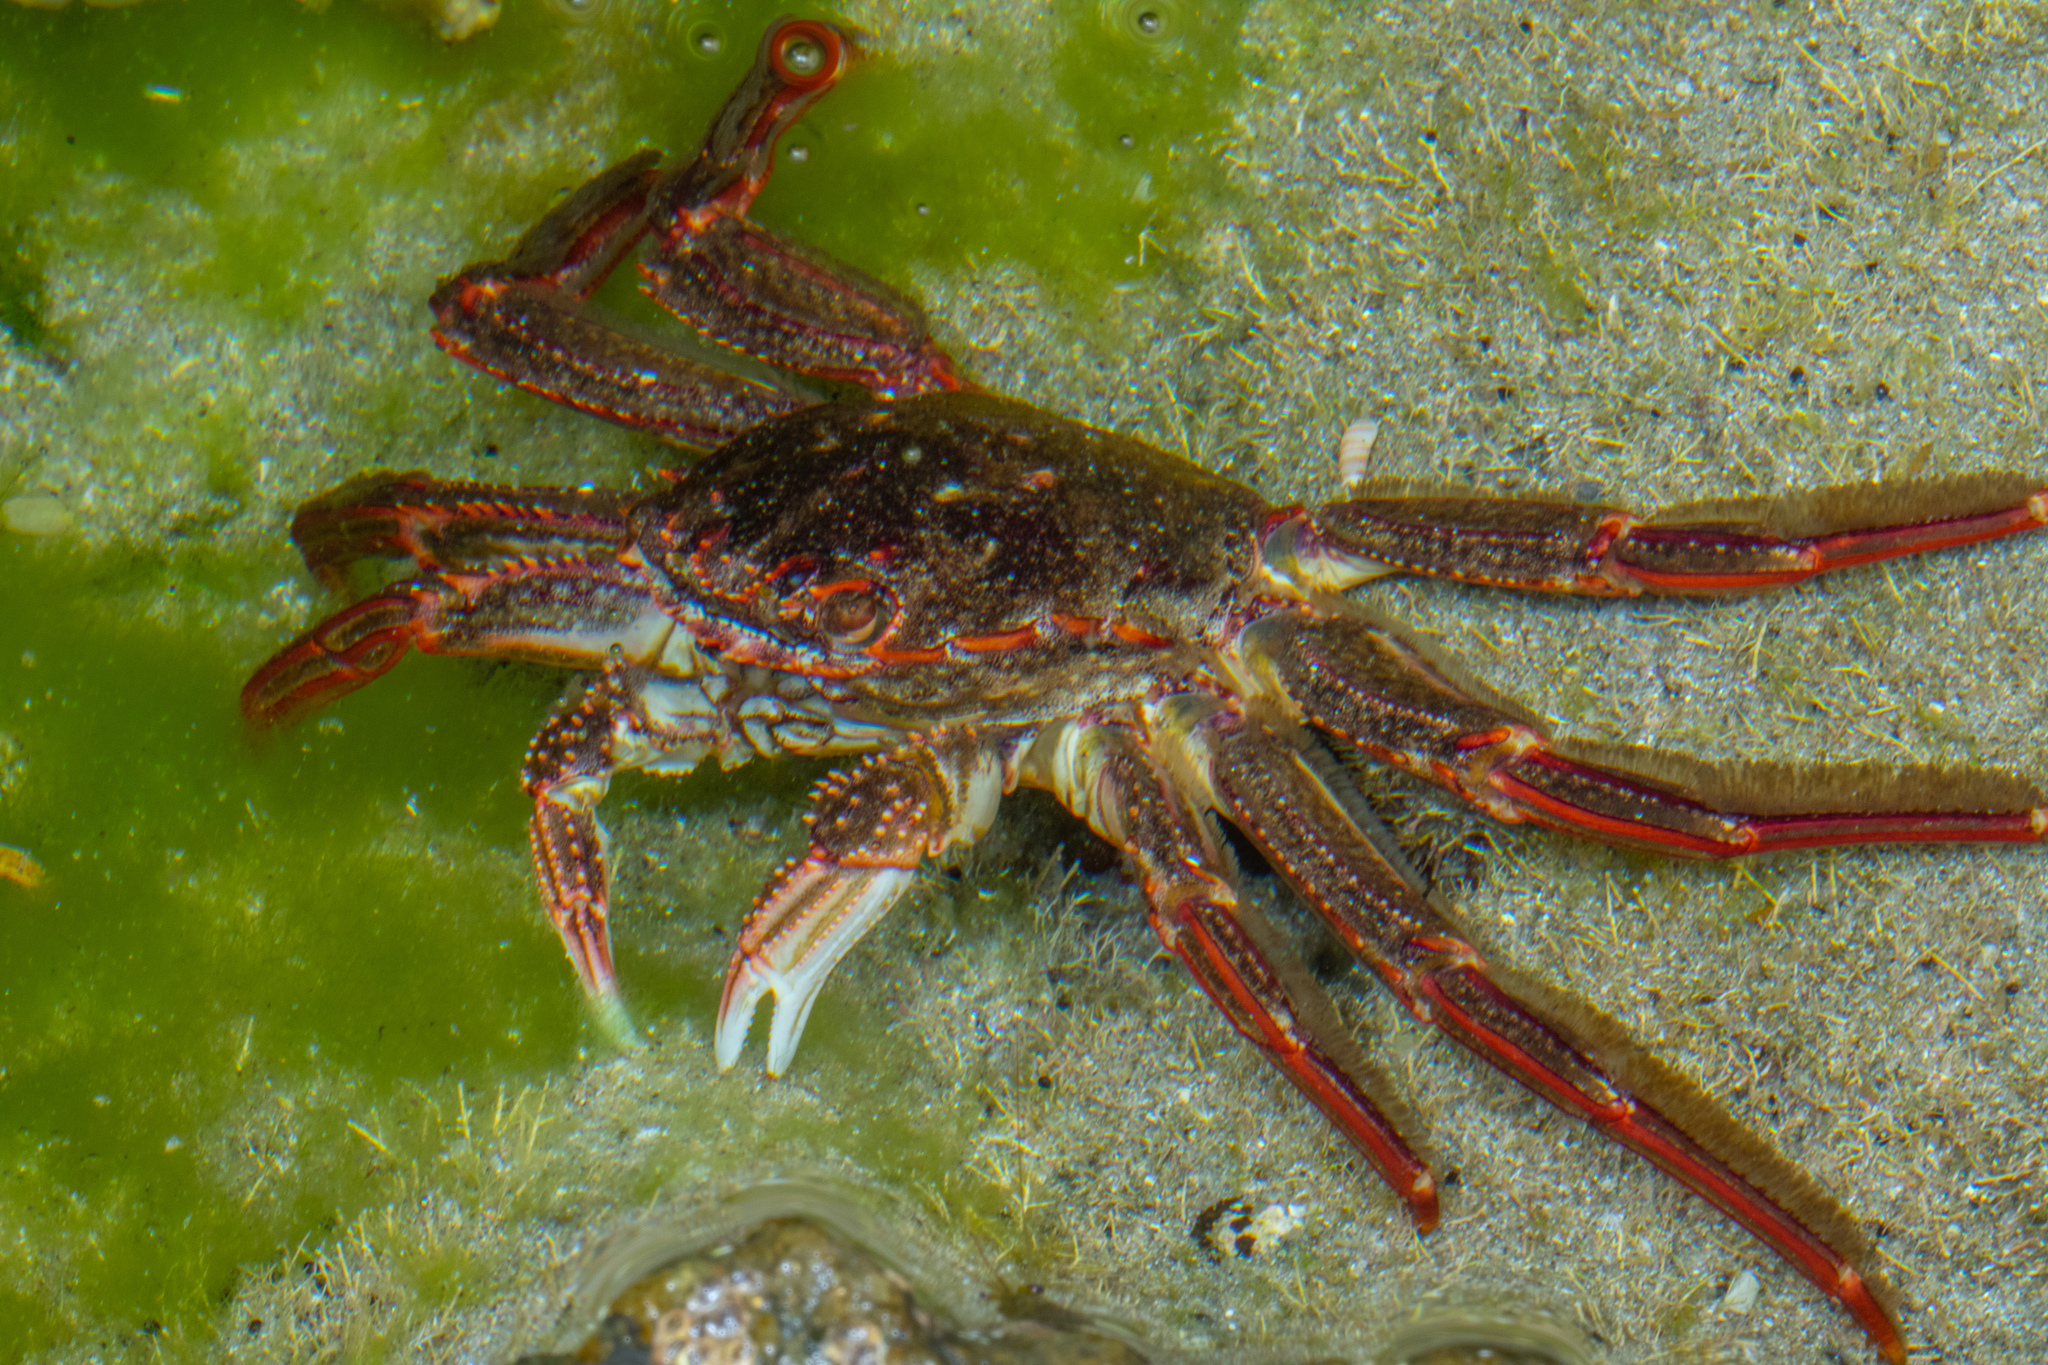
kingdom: Animalia
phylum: Arthropoda
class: Malacostraca
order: Decapoda
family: Plagusiidae
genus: Guinusia
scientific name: Guinusia chabrus
